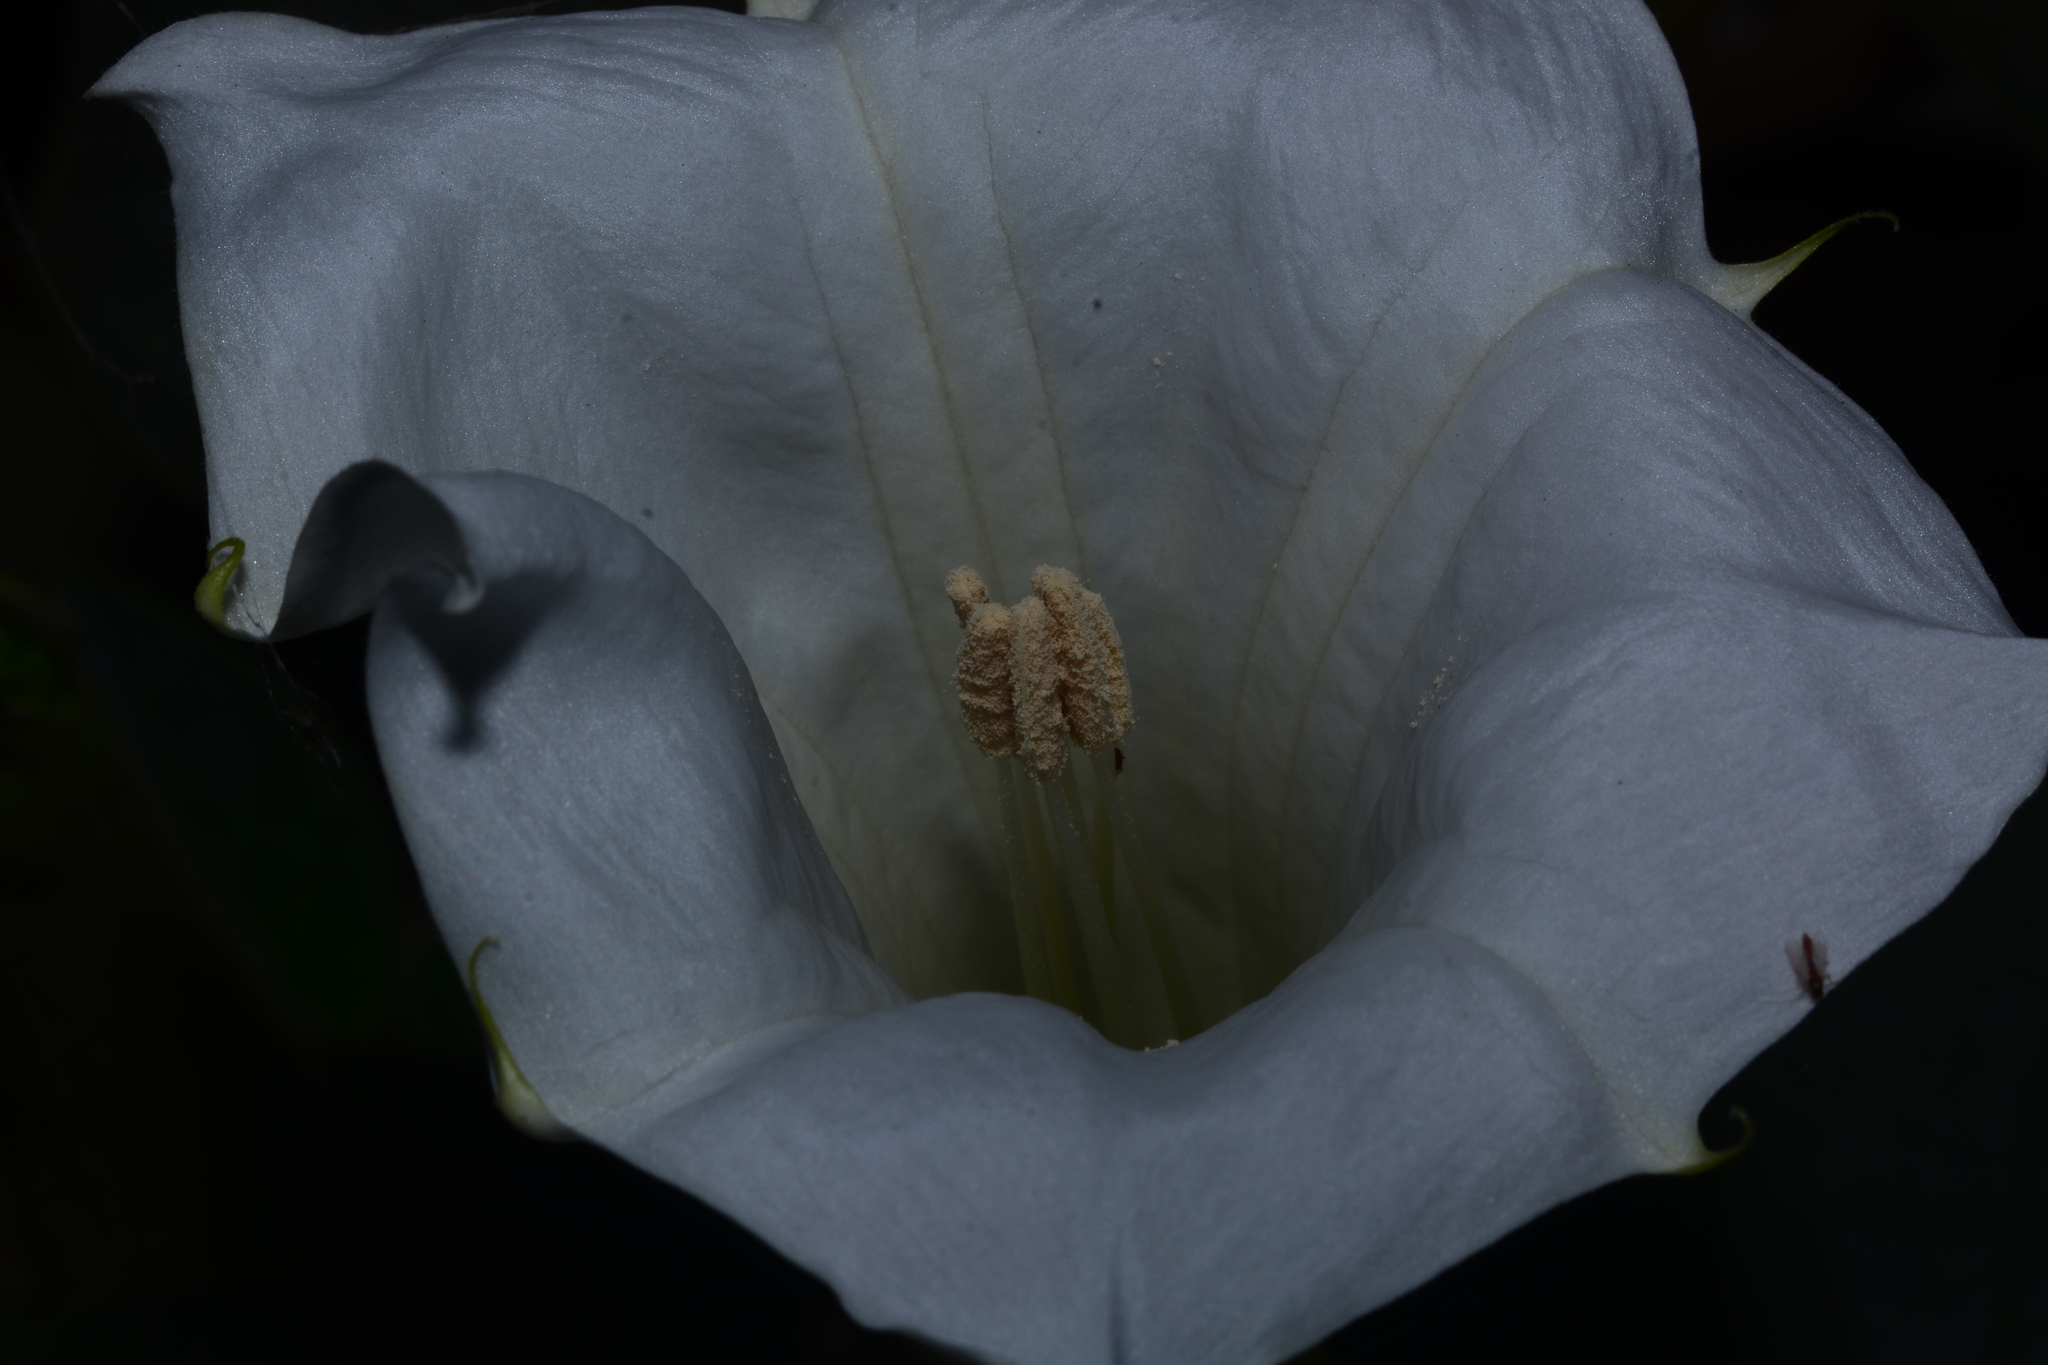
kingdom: Plantae
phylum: Tracheophyta
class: Magnoliopsida
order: Solanales
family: Solanaceae
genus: Datura
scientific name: Datura wrightii
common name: Sacred thorn-apple
